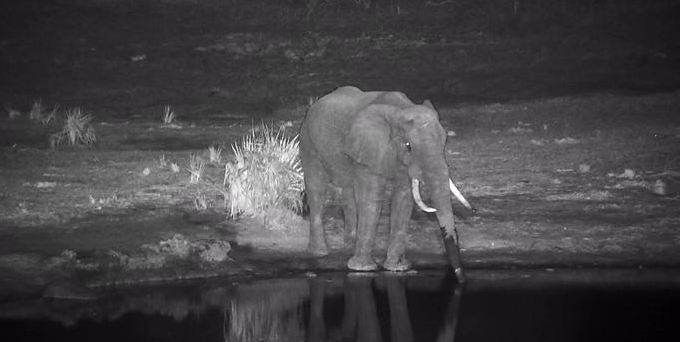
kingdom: Animalia
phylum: Chordata
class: Mammalia
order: Proboscidea
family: Elephantidae
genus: Loxodonta
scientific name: Loxodonta africana
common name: African elephant
